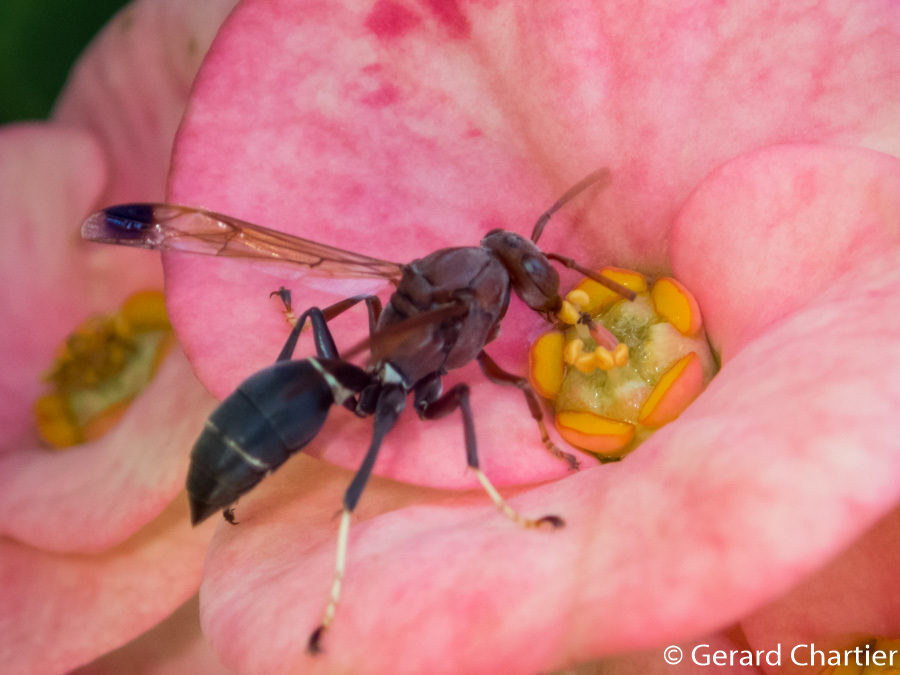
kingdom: Animalia
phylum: Arthropoda
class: Insecta
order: Hymenoptera
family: Eumenidae
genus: Polistes
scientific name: Polistes brunus
